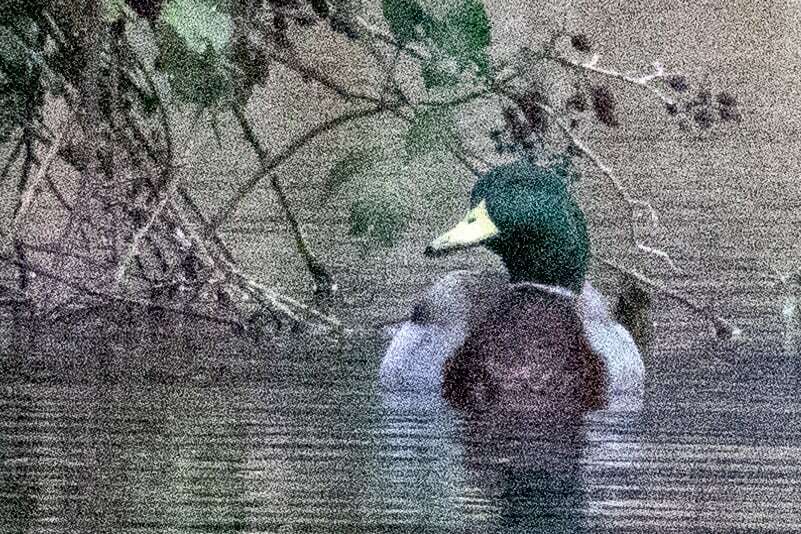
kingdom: Animalia
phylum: Chordata
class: Aves
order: Anseriformes
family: Anatidae
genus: Anas
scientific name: Anas platyrhynchos
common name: Mallard
